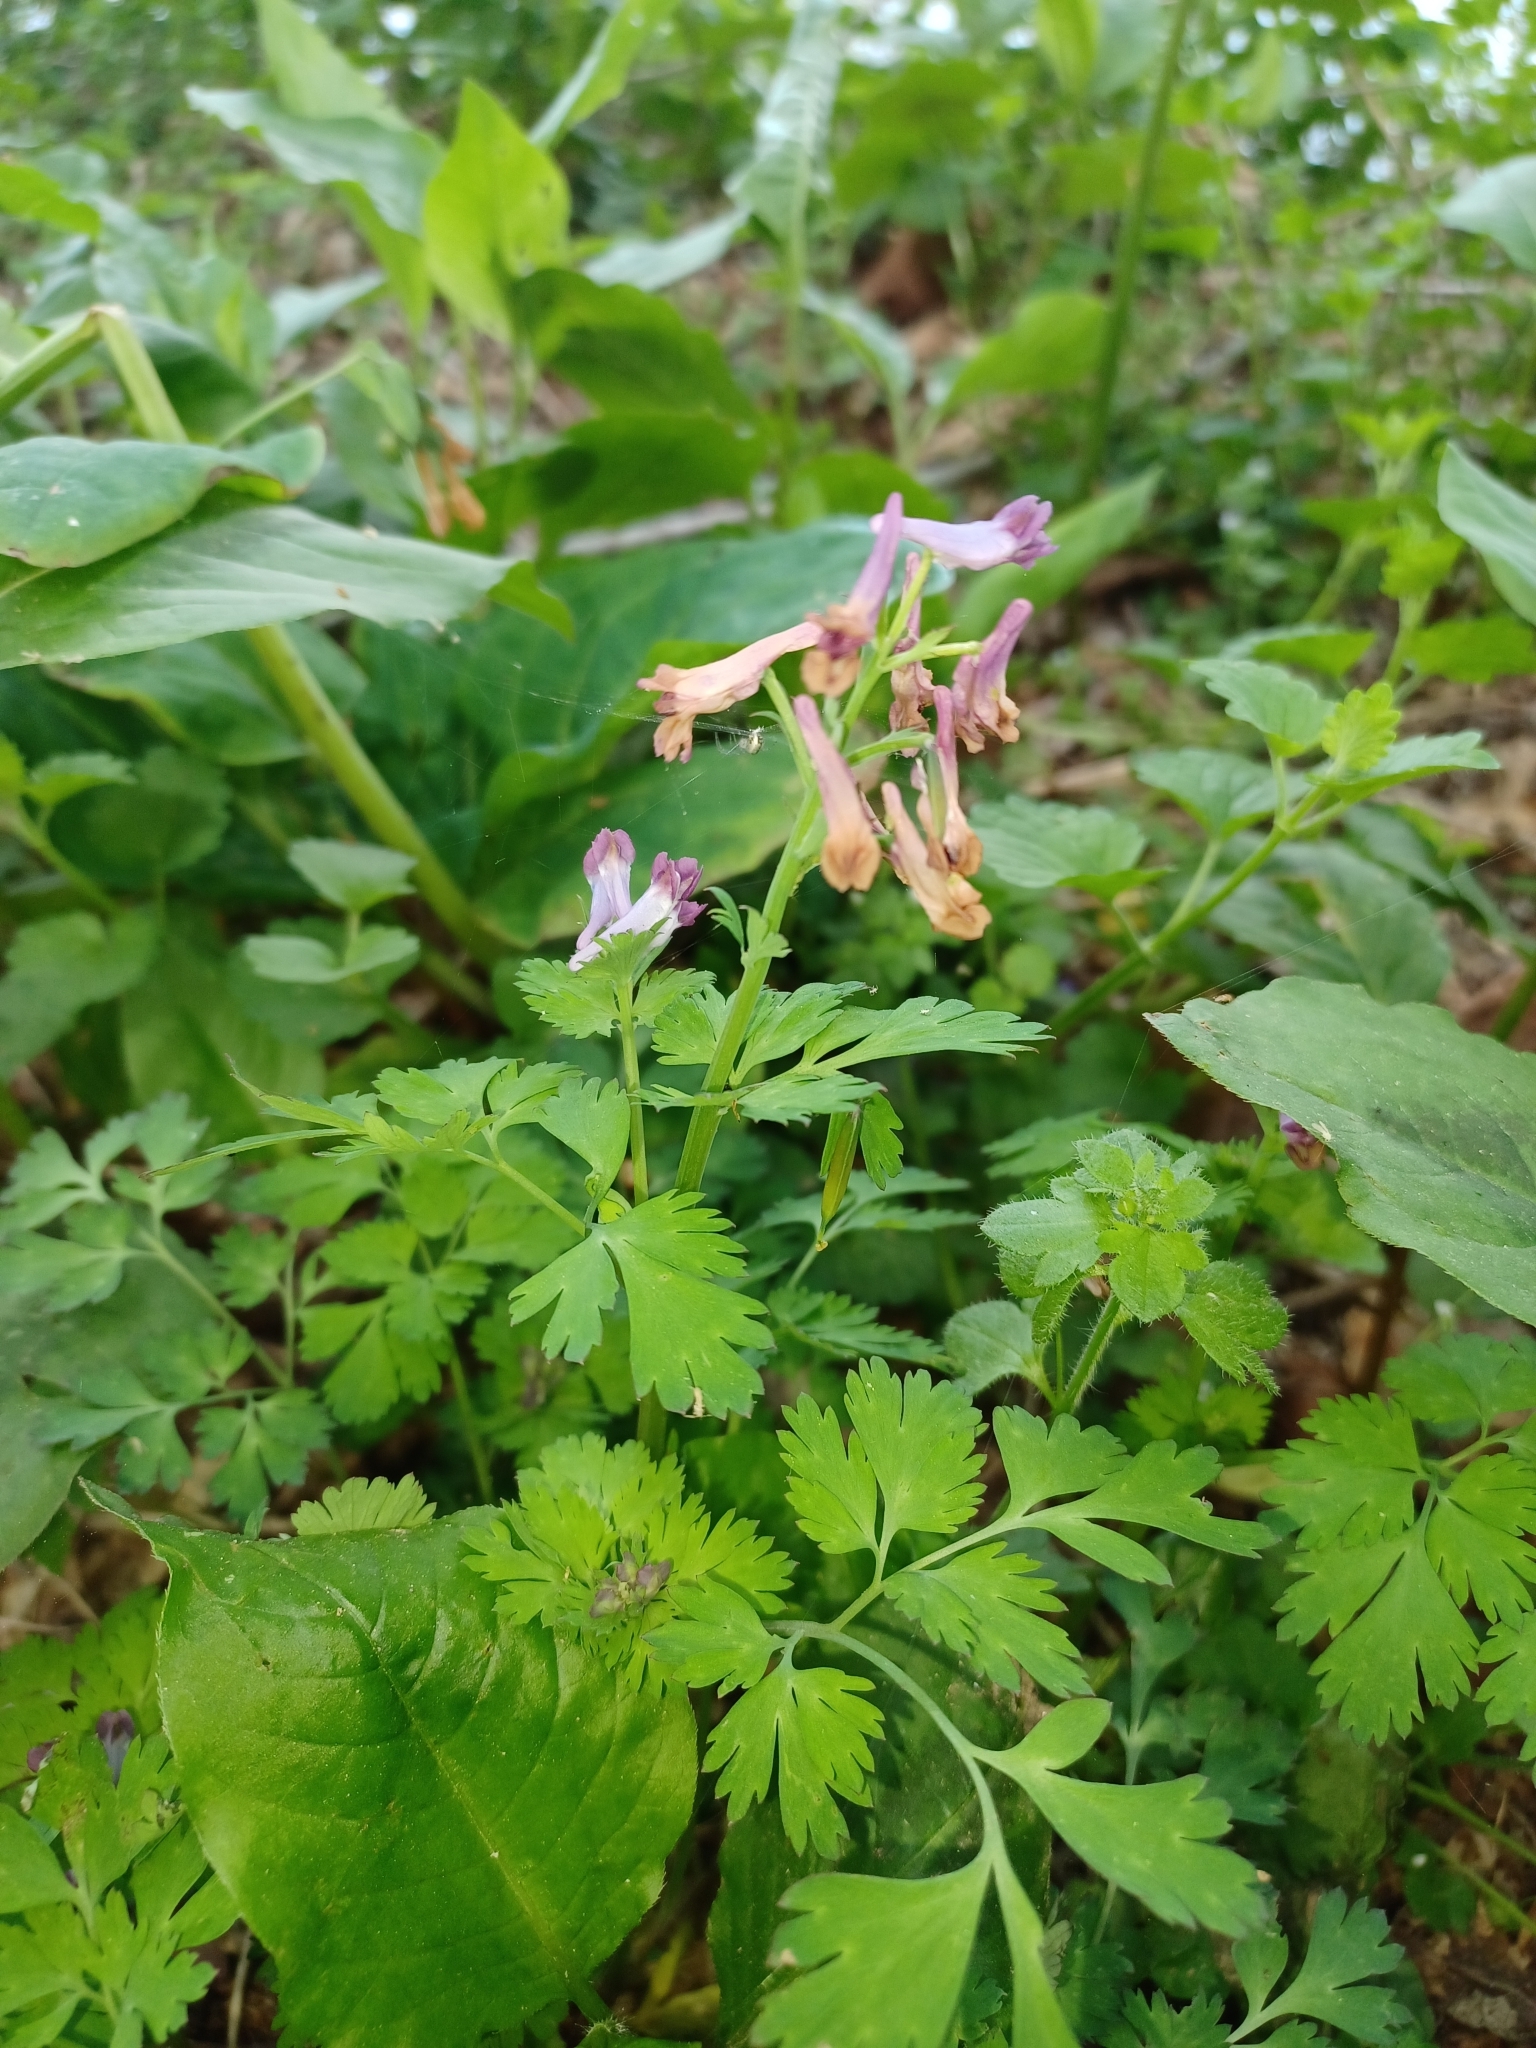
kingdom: Plantae
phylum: Tracheophyta
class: Magnoliopsida
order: Ranunculales
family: Papaveraceae
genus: Corydalis
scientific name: Corydalis incisa
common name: Incised fumewort
